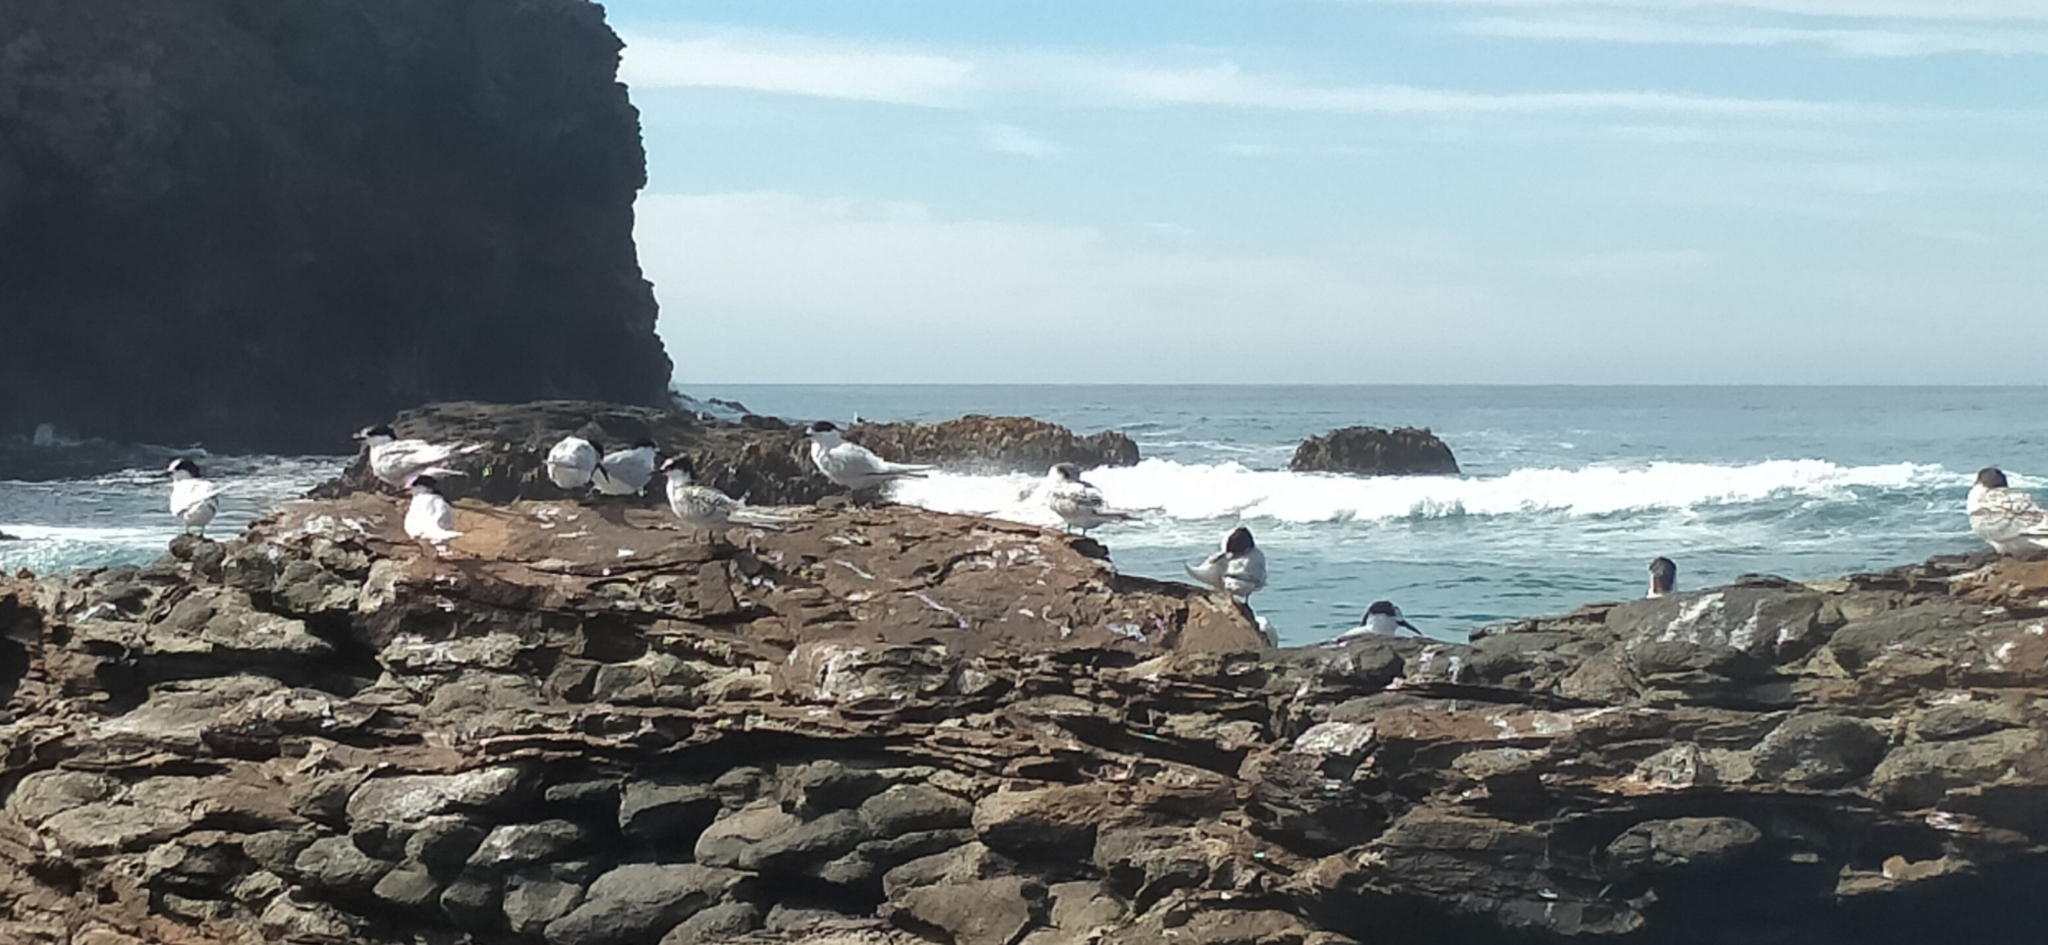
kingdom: Animalia
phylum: Chordata
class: Aves
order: Charadriiformes
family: Laridae
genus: Sterna
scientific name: Sterna striata
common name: White-fronted tern
